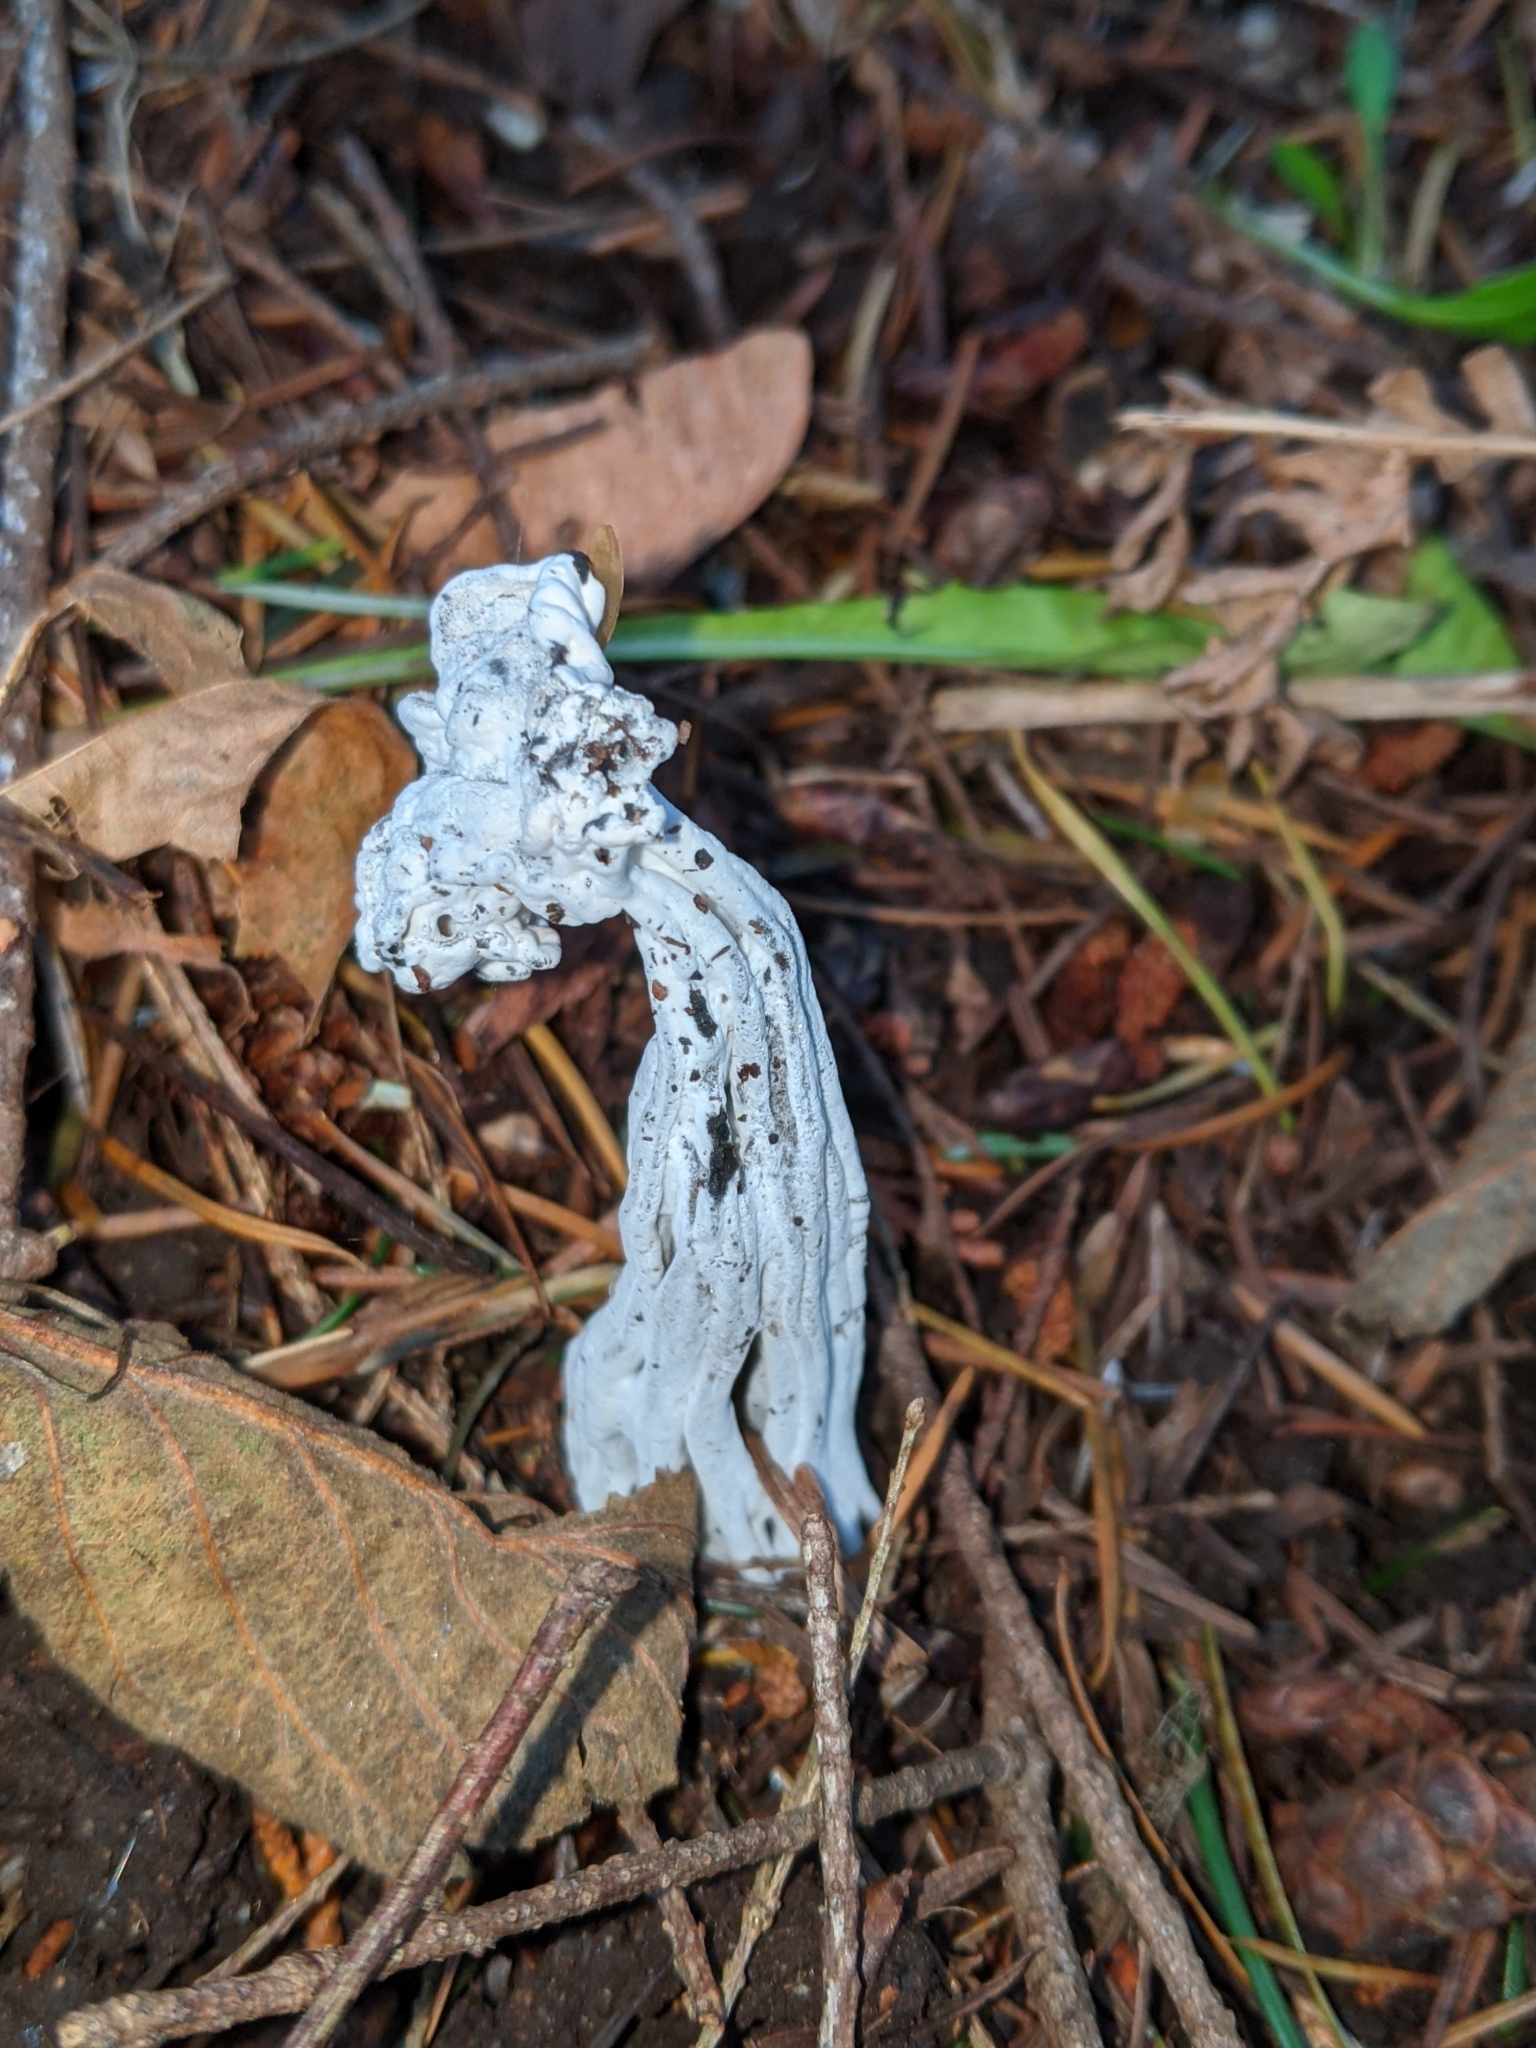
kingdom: Fungi
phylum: Ascomycota
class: Sordariomycetes
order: Hypocreales
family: Hypocreaceae
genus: Hypomyces
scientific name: Hypomyces cervinus
